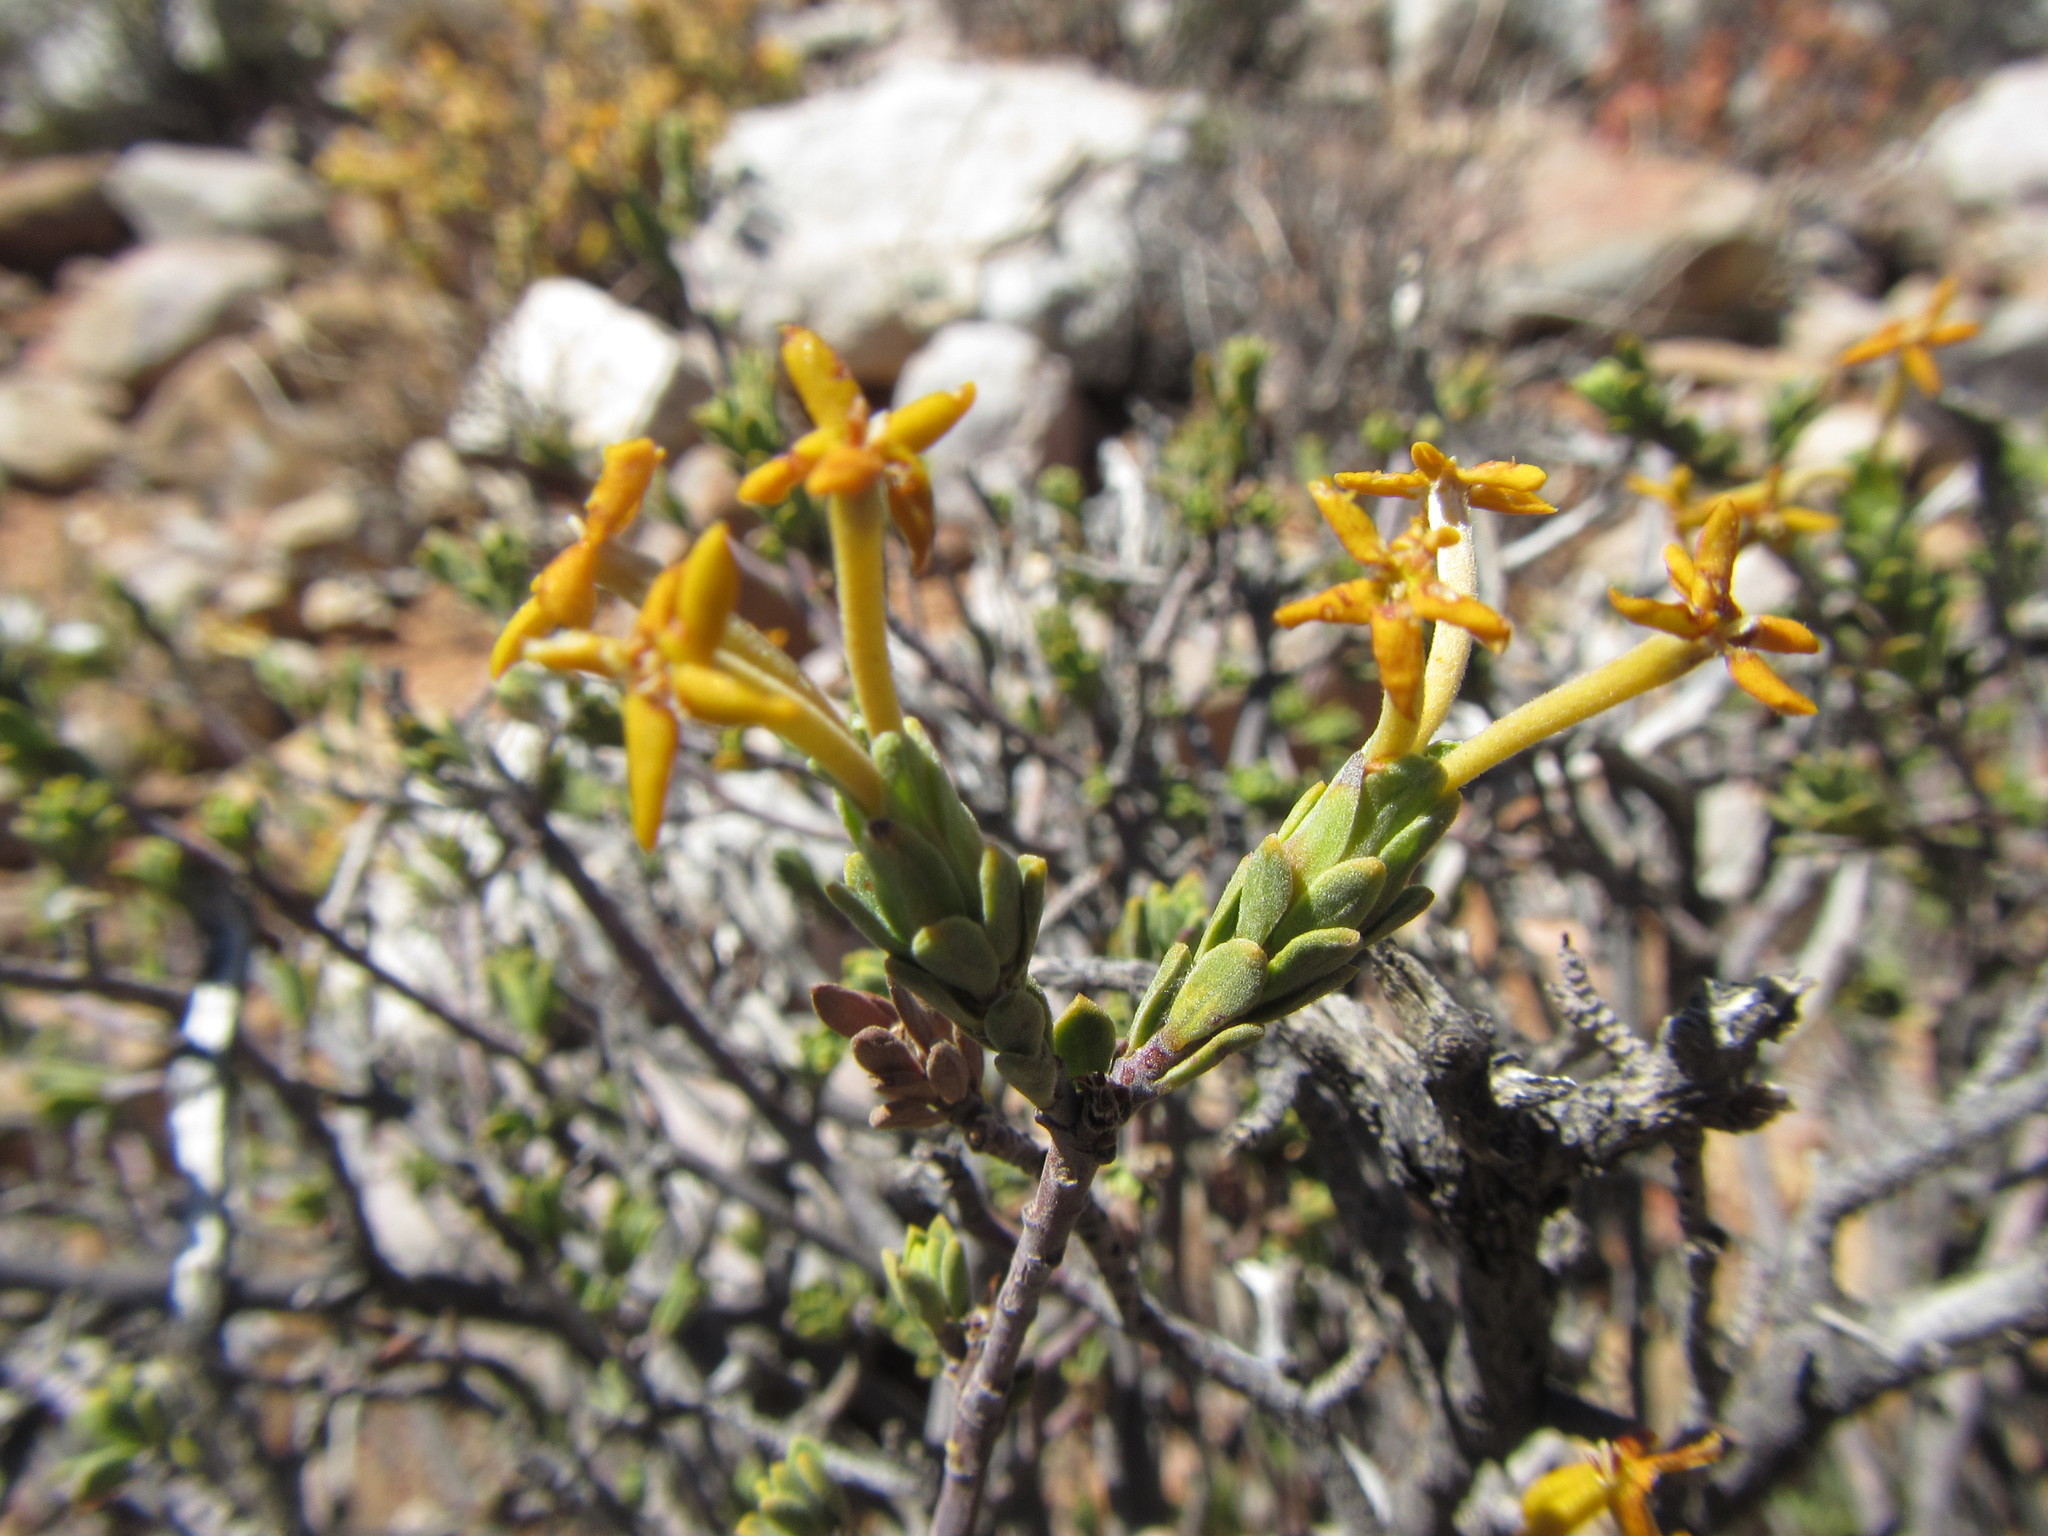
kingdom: Plantae
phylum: Tracheophyta
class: Magnoliopsida
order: Malvales
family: Thymelaeaceae
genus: Gnidia
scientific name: Gnidia deserticola
